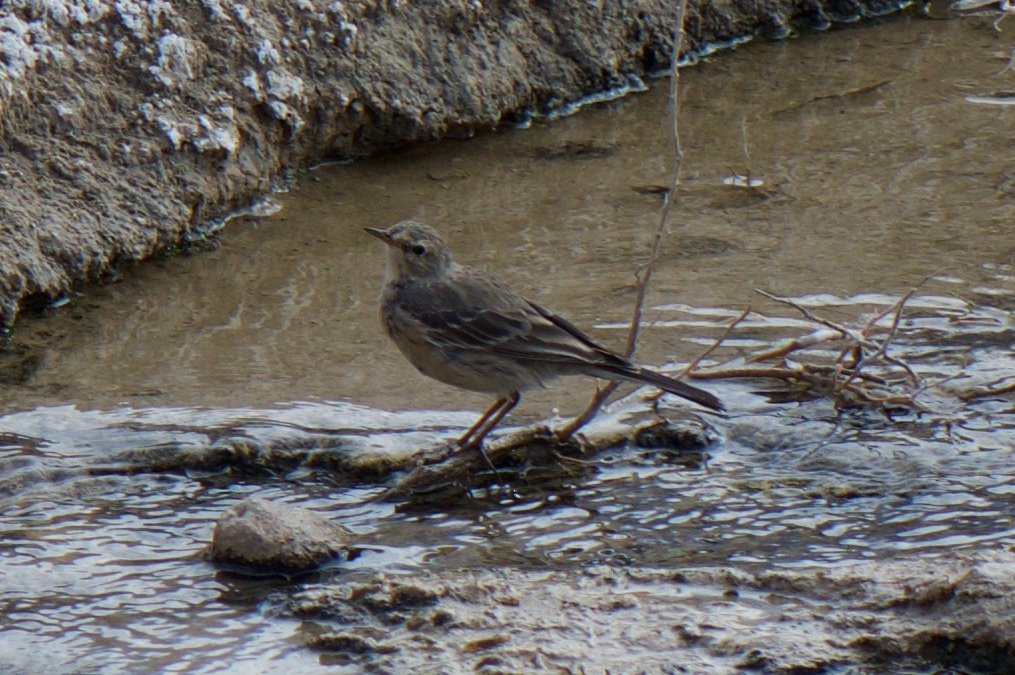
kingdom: Animalia
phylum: Chordata
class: Aves
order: Passeriformes
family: Motacillidae
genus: Anthus
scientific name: Anthus rubescens
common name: Buff-bellied pipit
